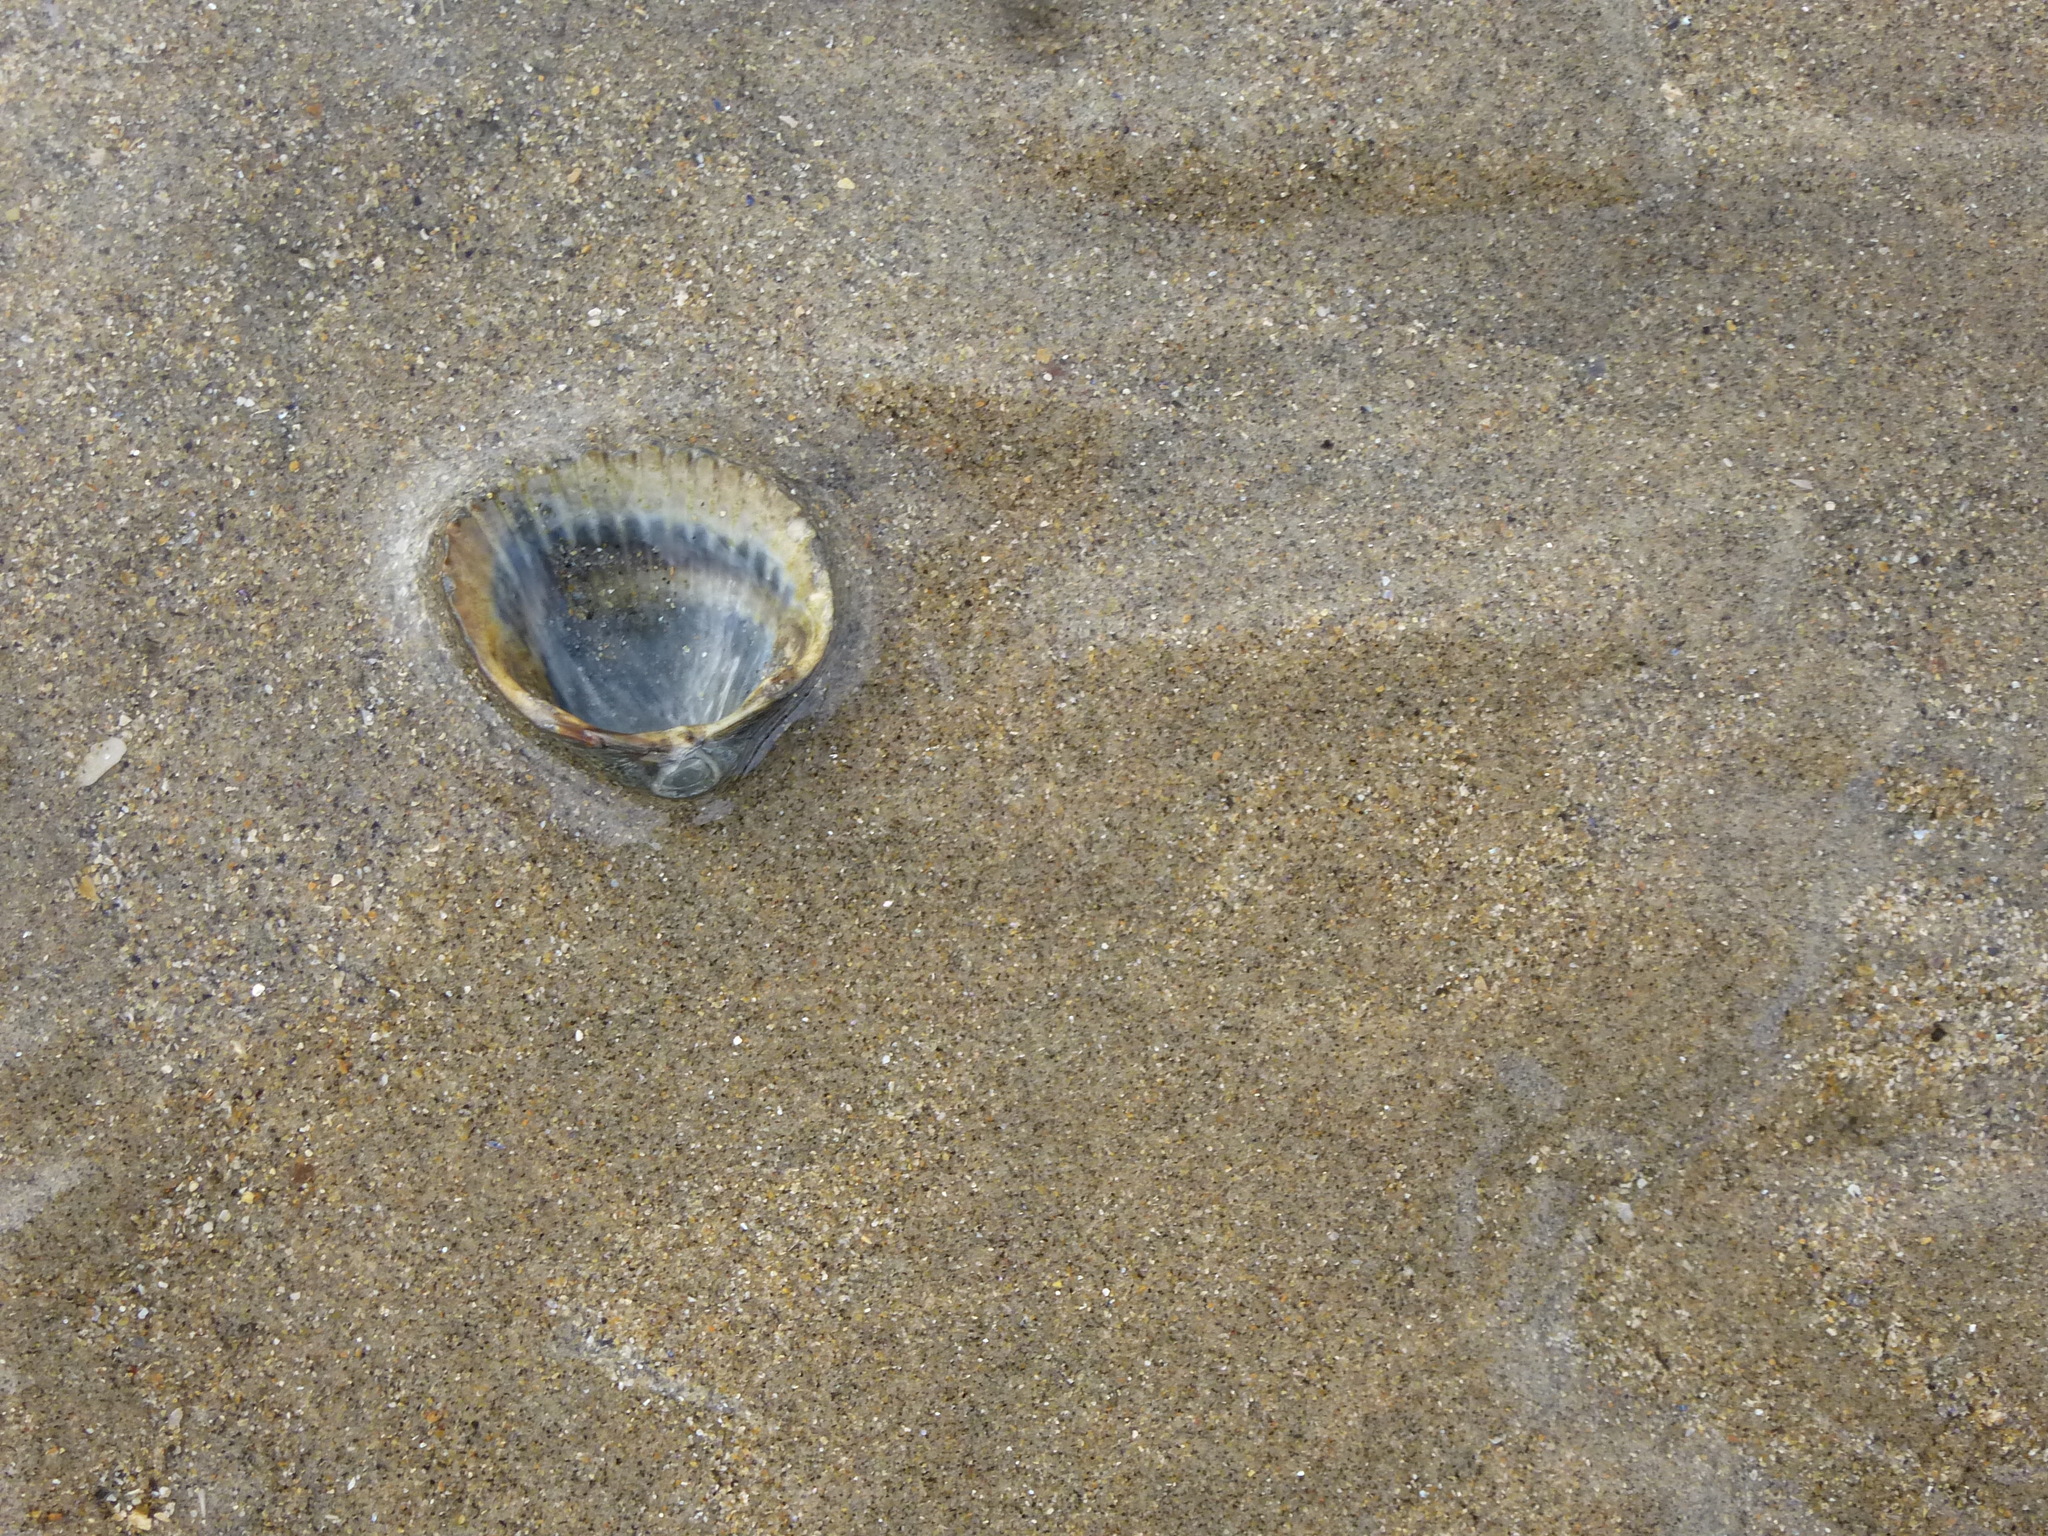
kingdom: Animalia
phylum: Mollusca
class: Bivalvia
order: Cardiida
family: Cardiidae
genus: Cerastoderma
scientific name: Cerastoderma edule
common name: Common cockle
